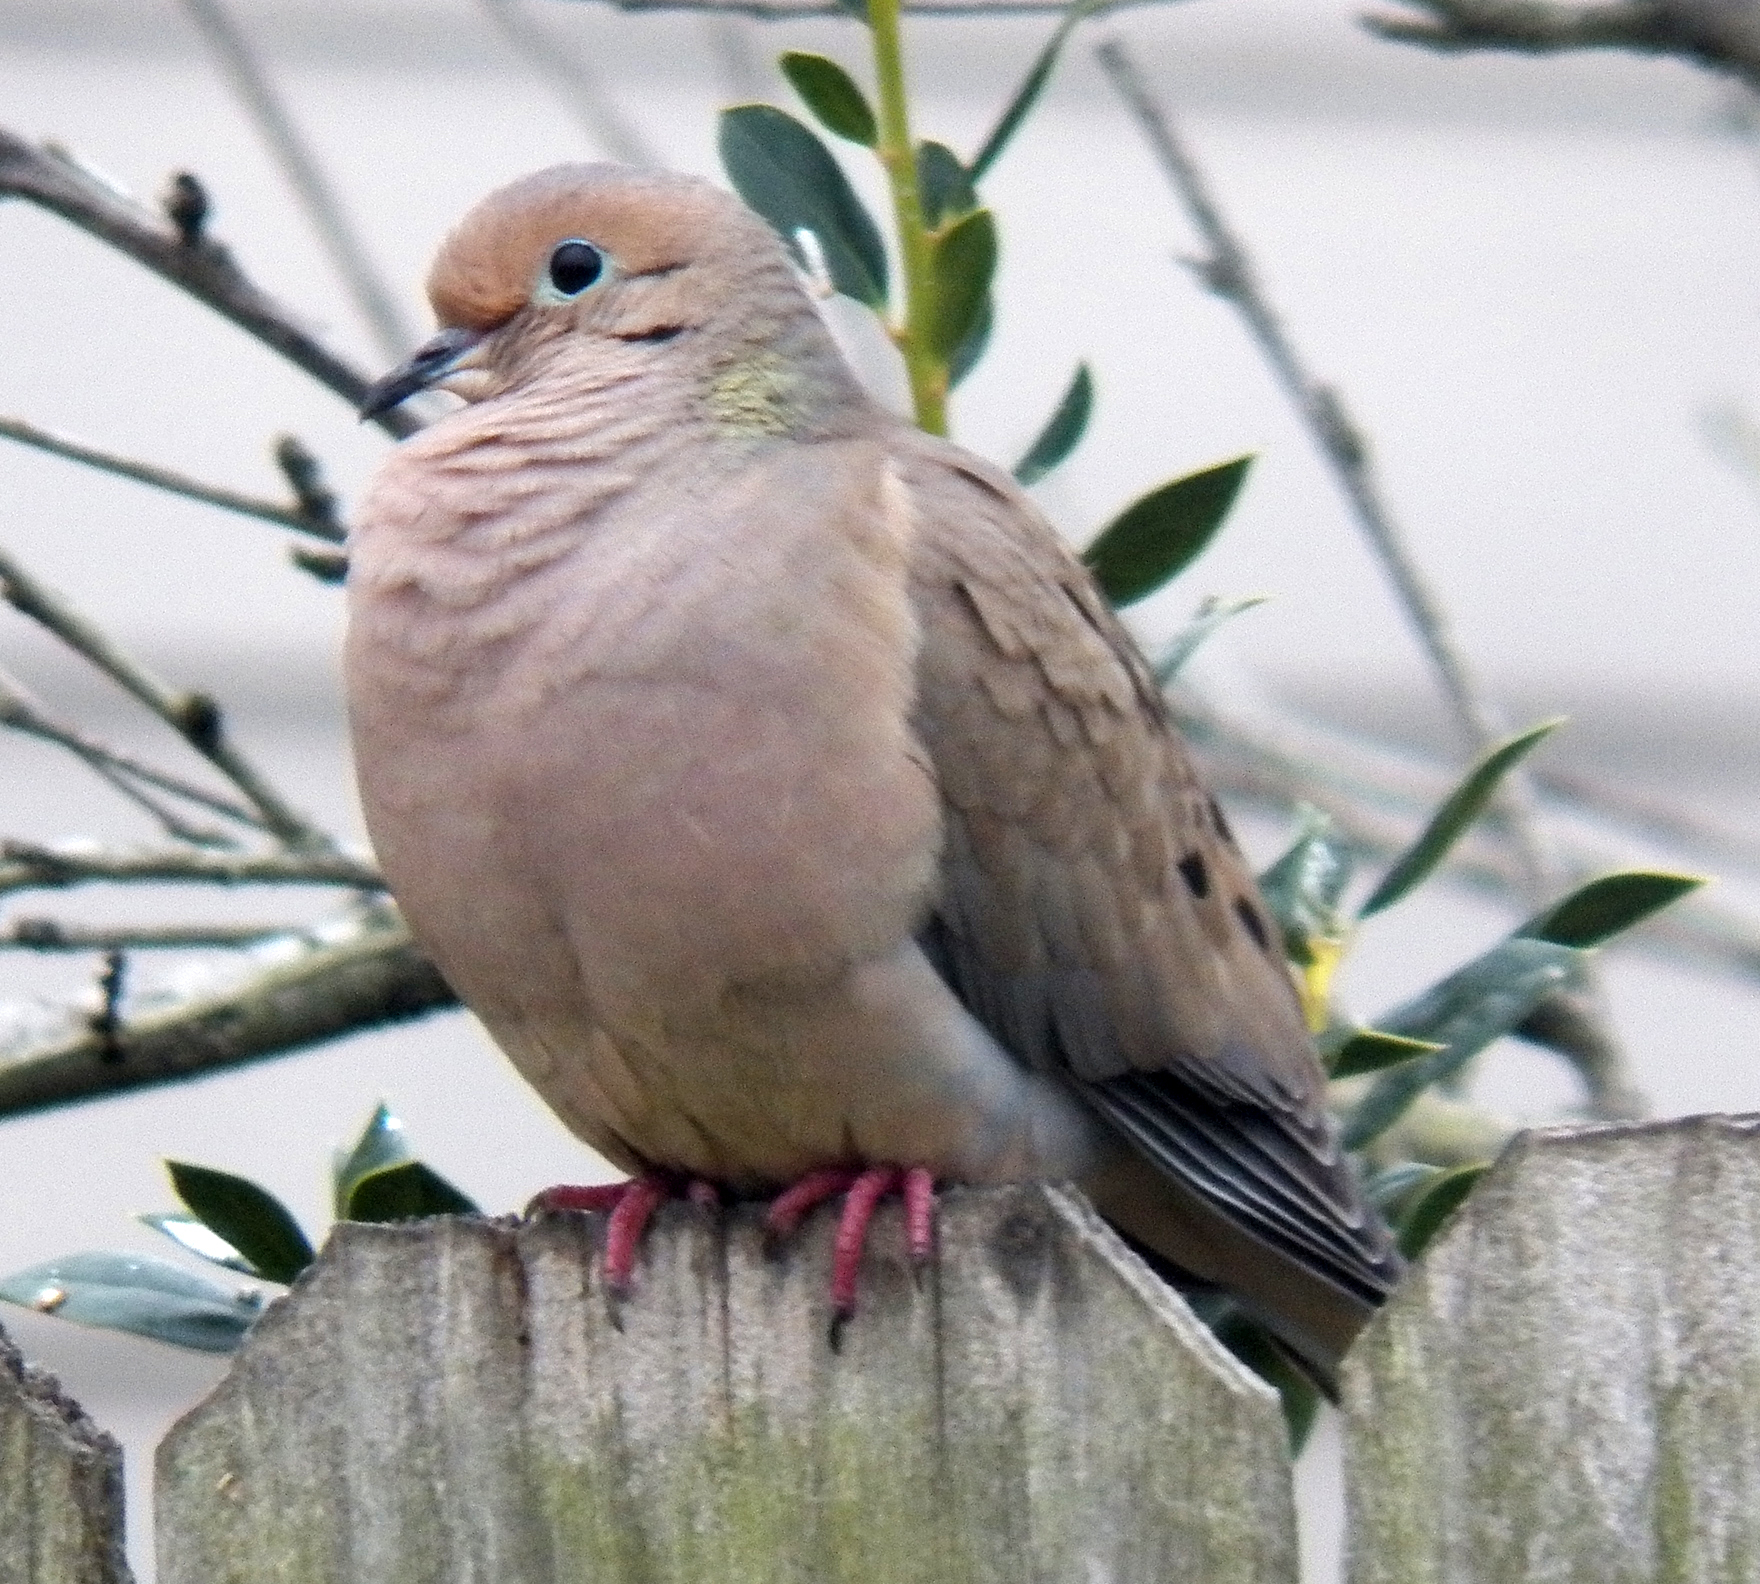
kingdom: Animalia
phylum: Chordata
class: Aves
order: Columbiformes
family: Columbidae
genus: Zenaida
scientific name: Zenaida macroura
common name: Mourning dove
